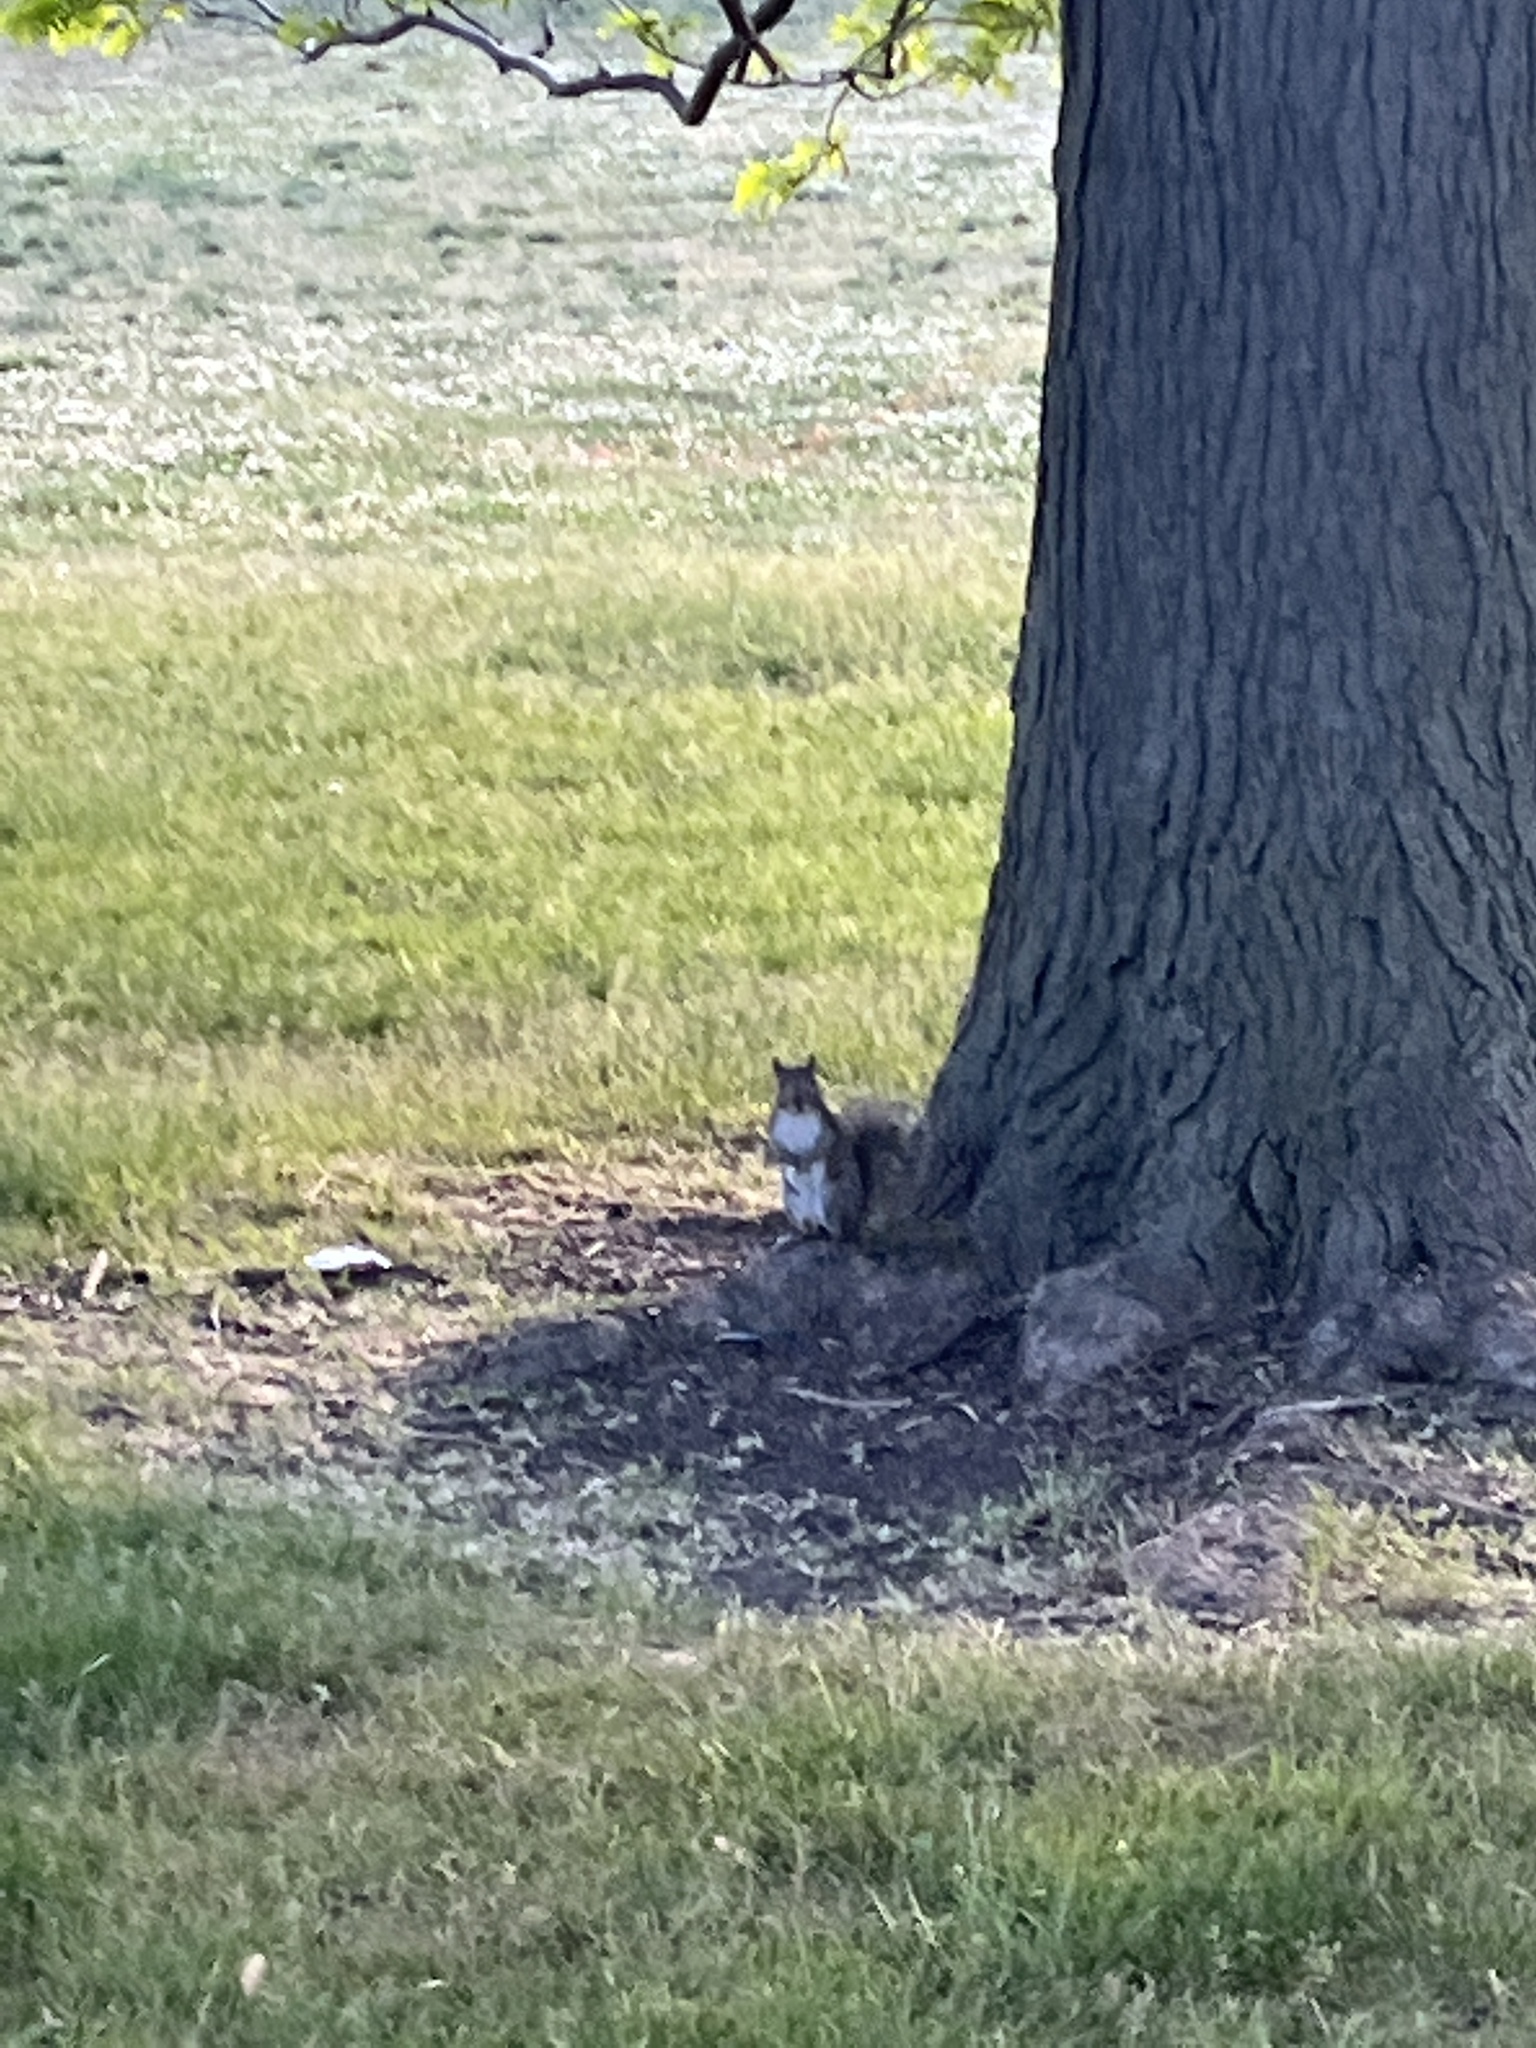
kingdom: Animalia
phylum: Chordata
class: Mammalia
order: Rodentia
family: Sciuridae
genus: Sciurus
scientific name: Sciurus carolinensis
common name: Eastern gray squirrel
